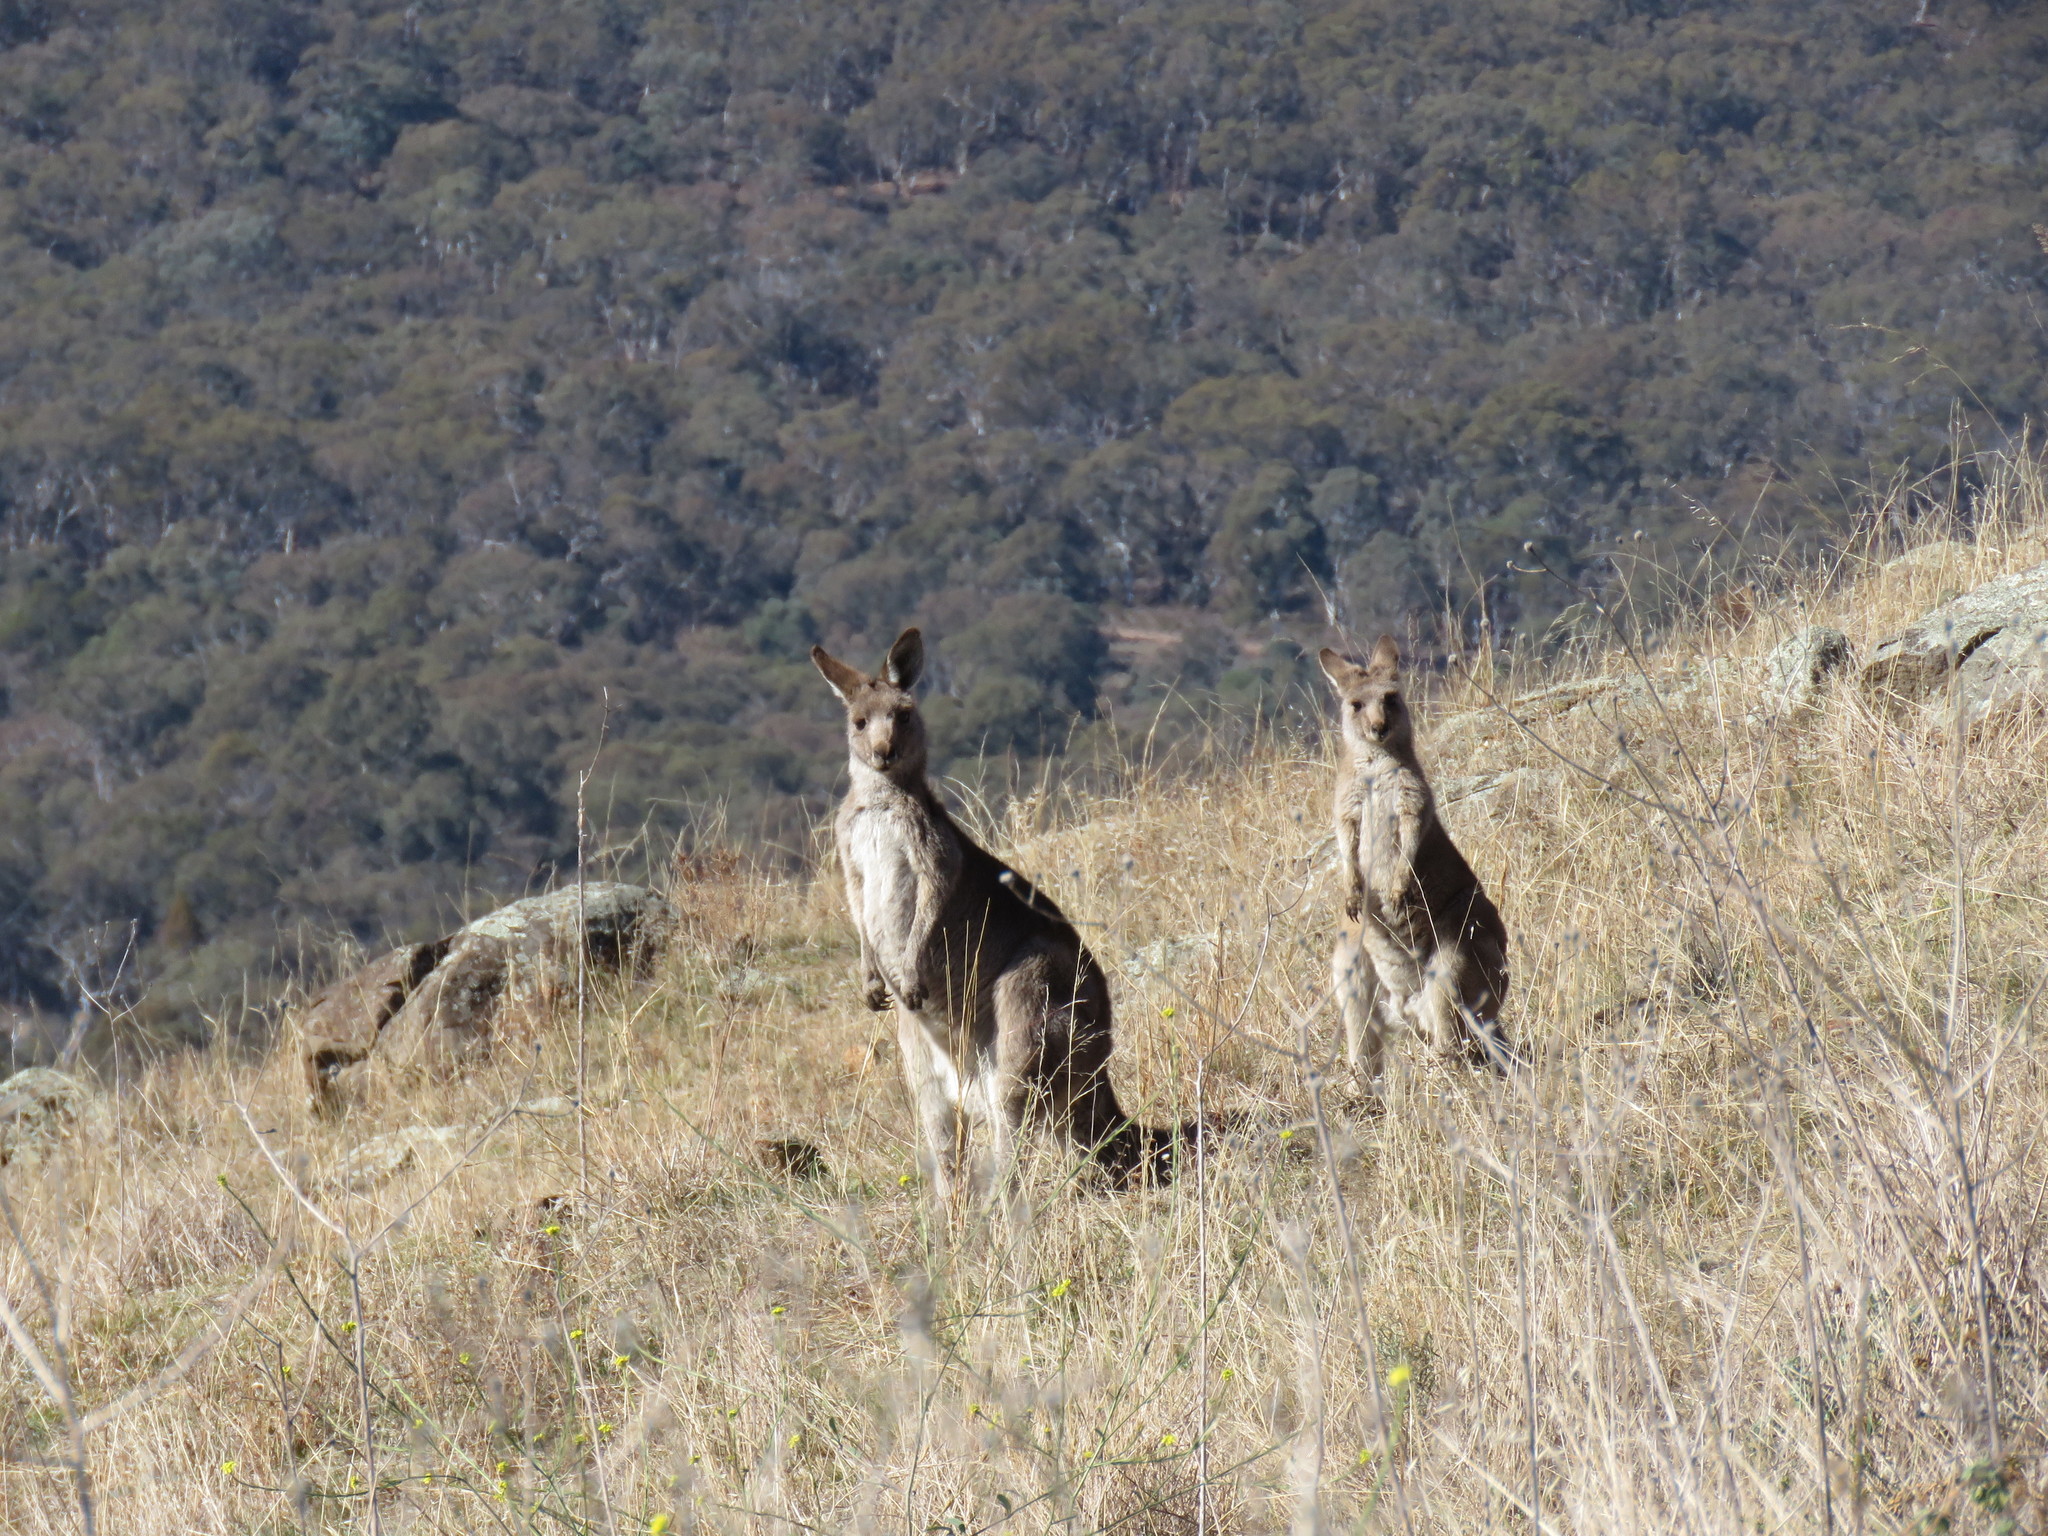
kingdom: Animalia
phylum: Chordata
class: Mammalia
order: Diprotodontia
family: Macropodidae
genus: Macropus
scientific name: Macropus giganteus
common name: Eastern grey kangaroo
